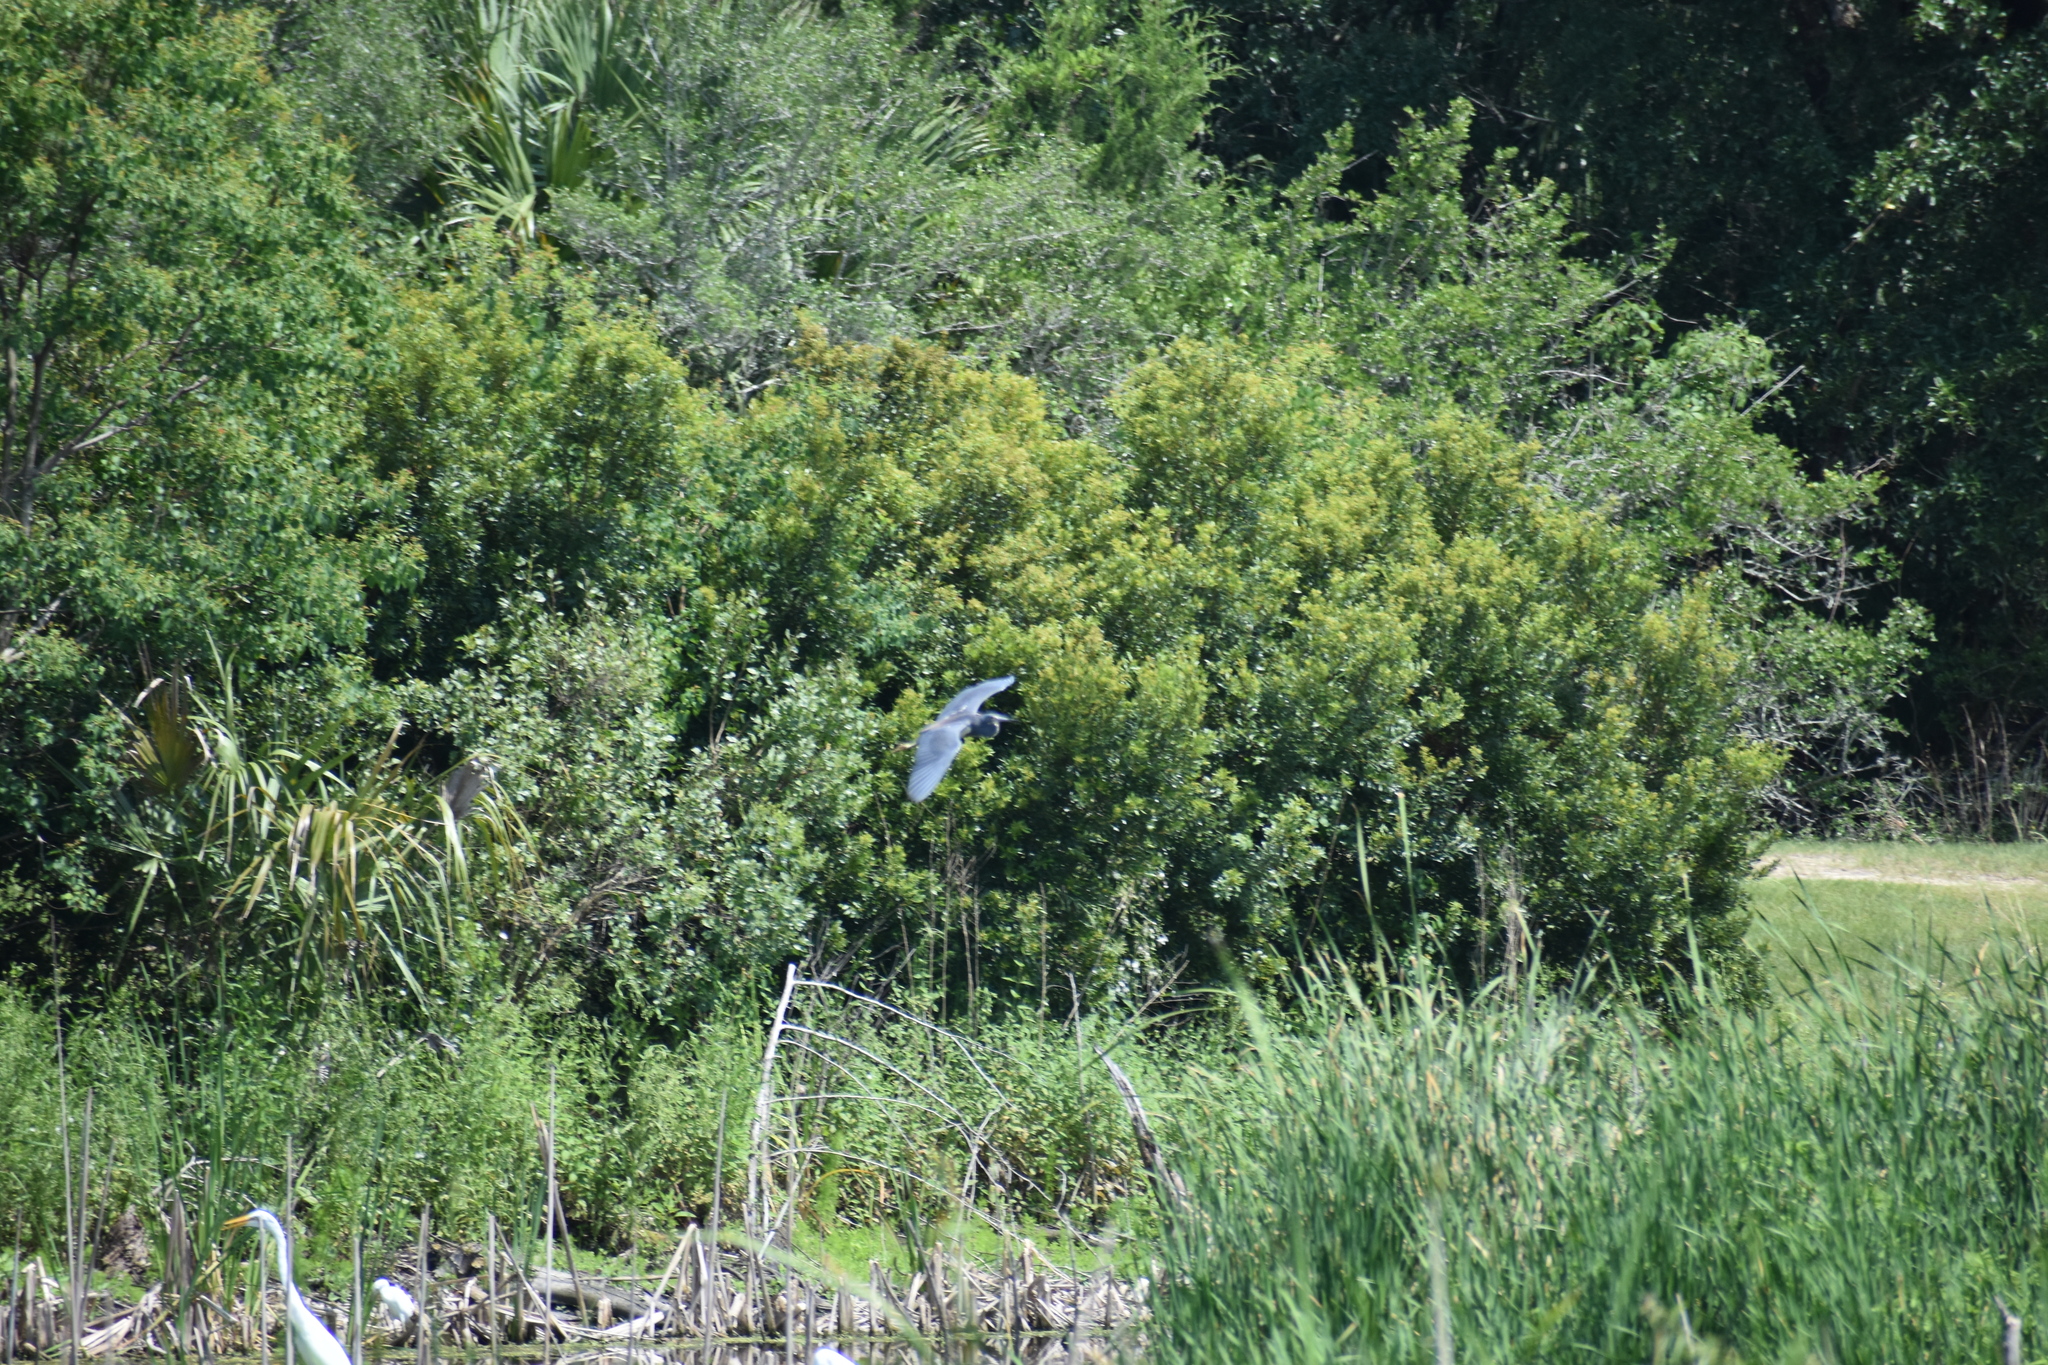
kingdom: Animalia
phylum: Chordata
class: Aves
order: Pelecaniformes
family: Ardeidae
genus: Egretta
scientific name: Egretta tricolor
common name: Tricolored heron
